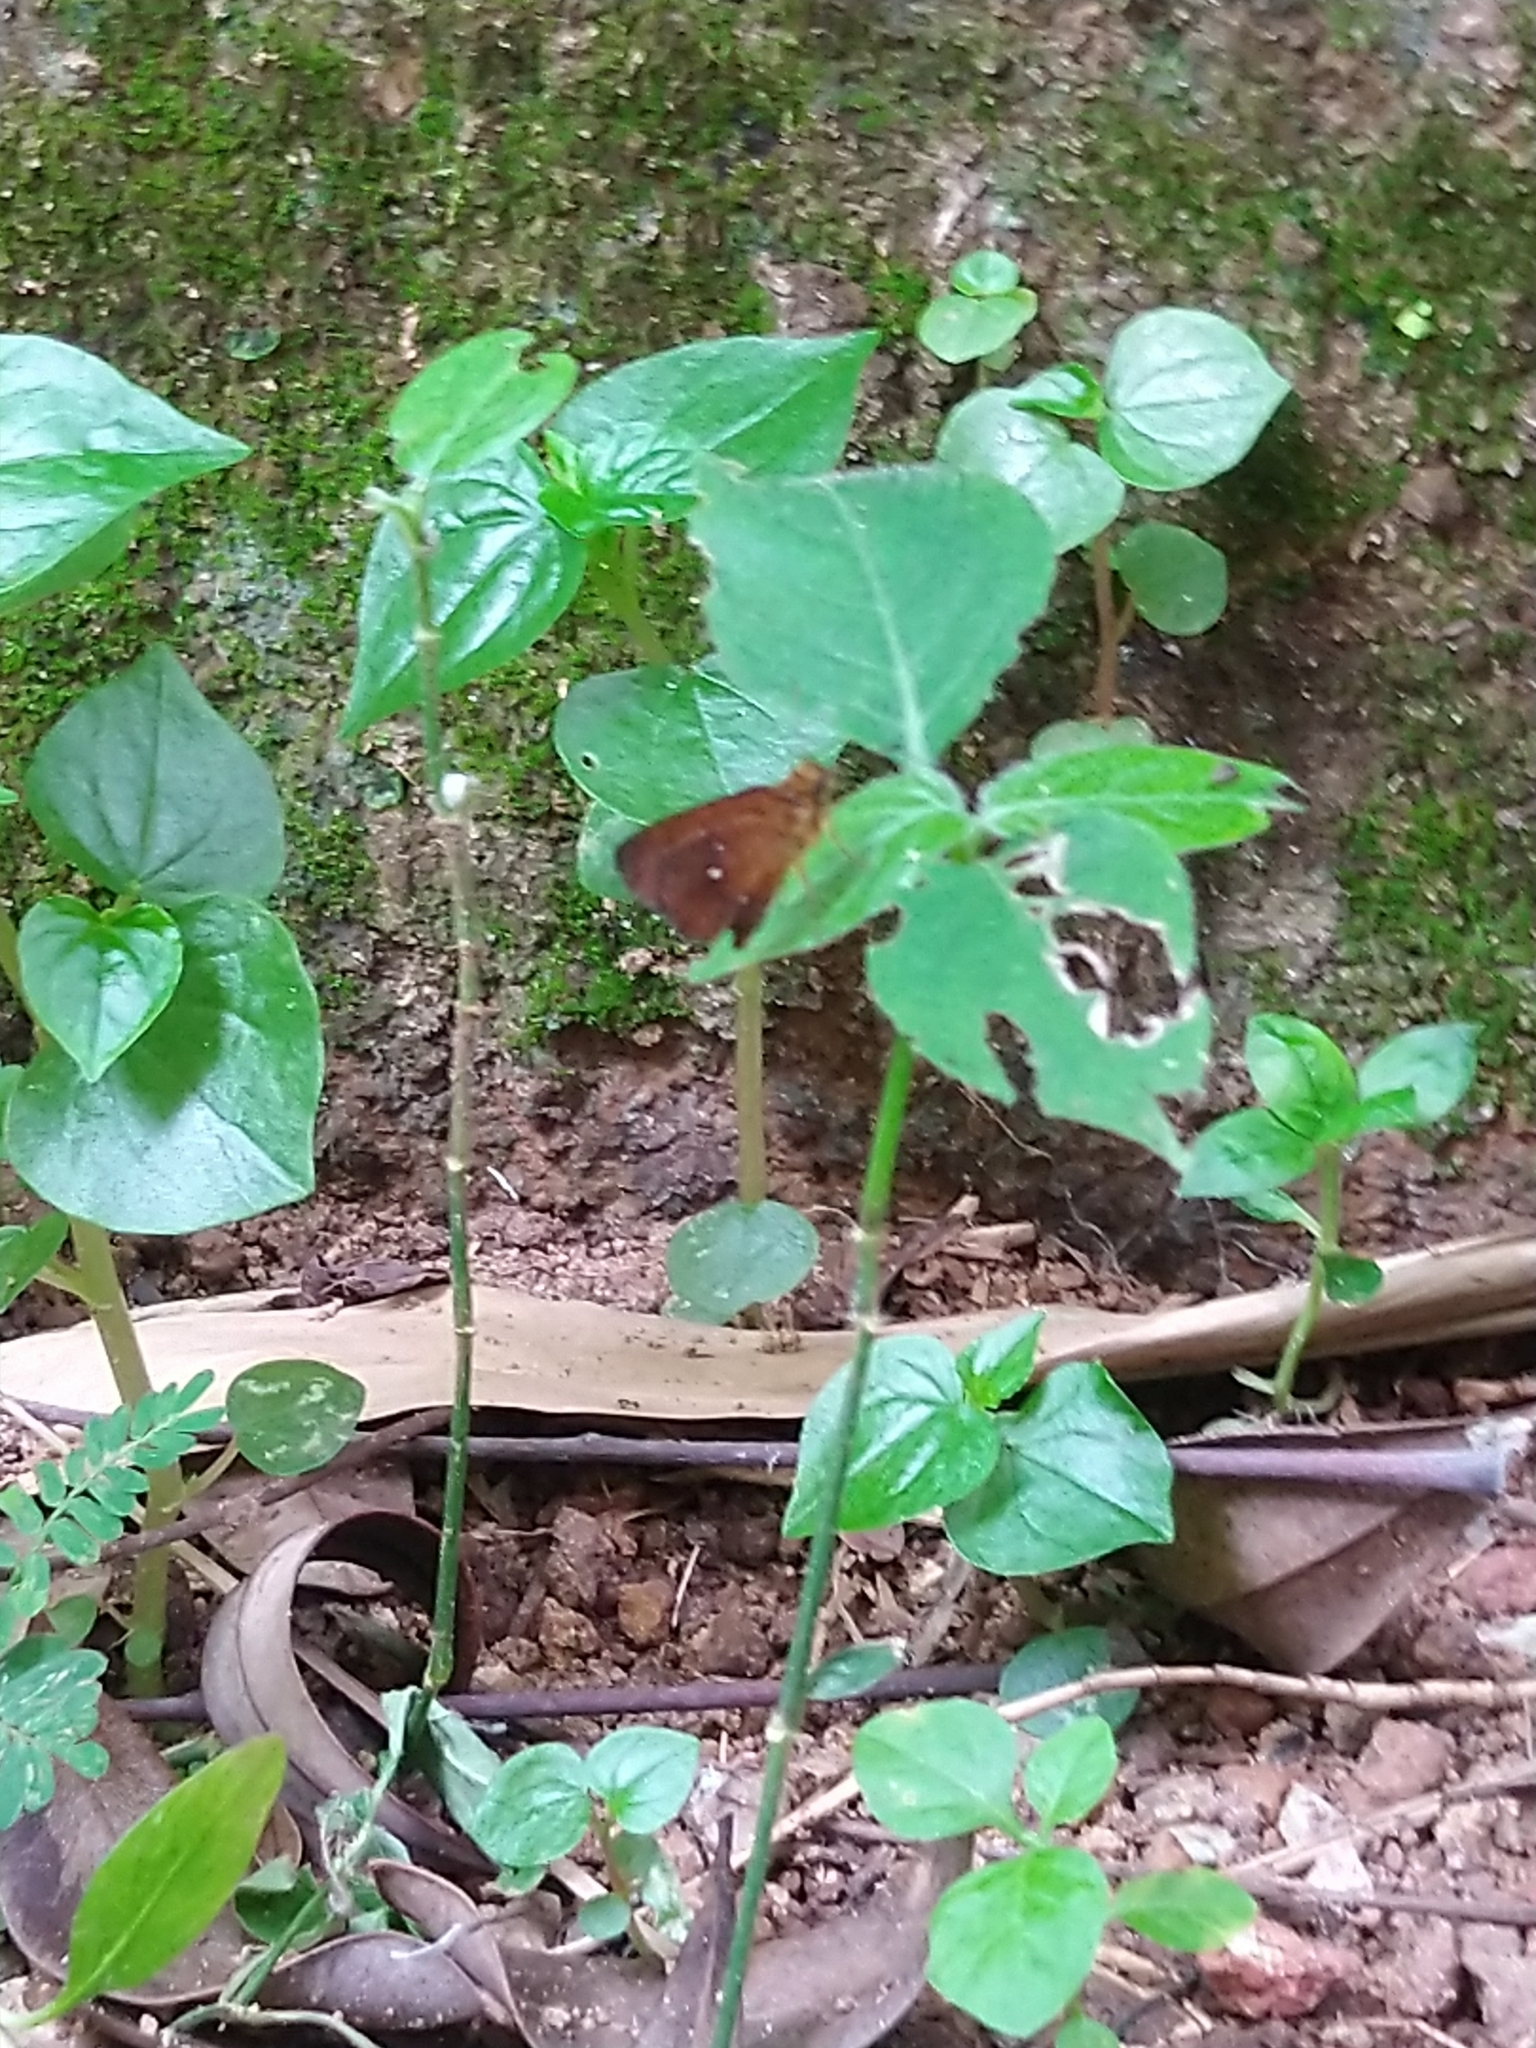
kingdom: Animalia
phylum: Arthropoda
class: Insecta
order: Lepidoptera
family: Hesperiidae
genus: Iambrix
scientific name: Iambrix salsala
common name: Chestnut bob
